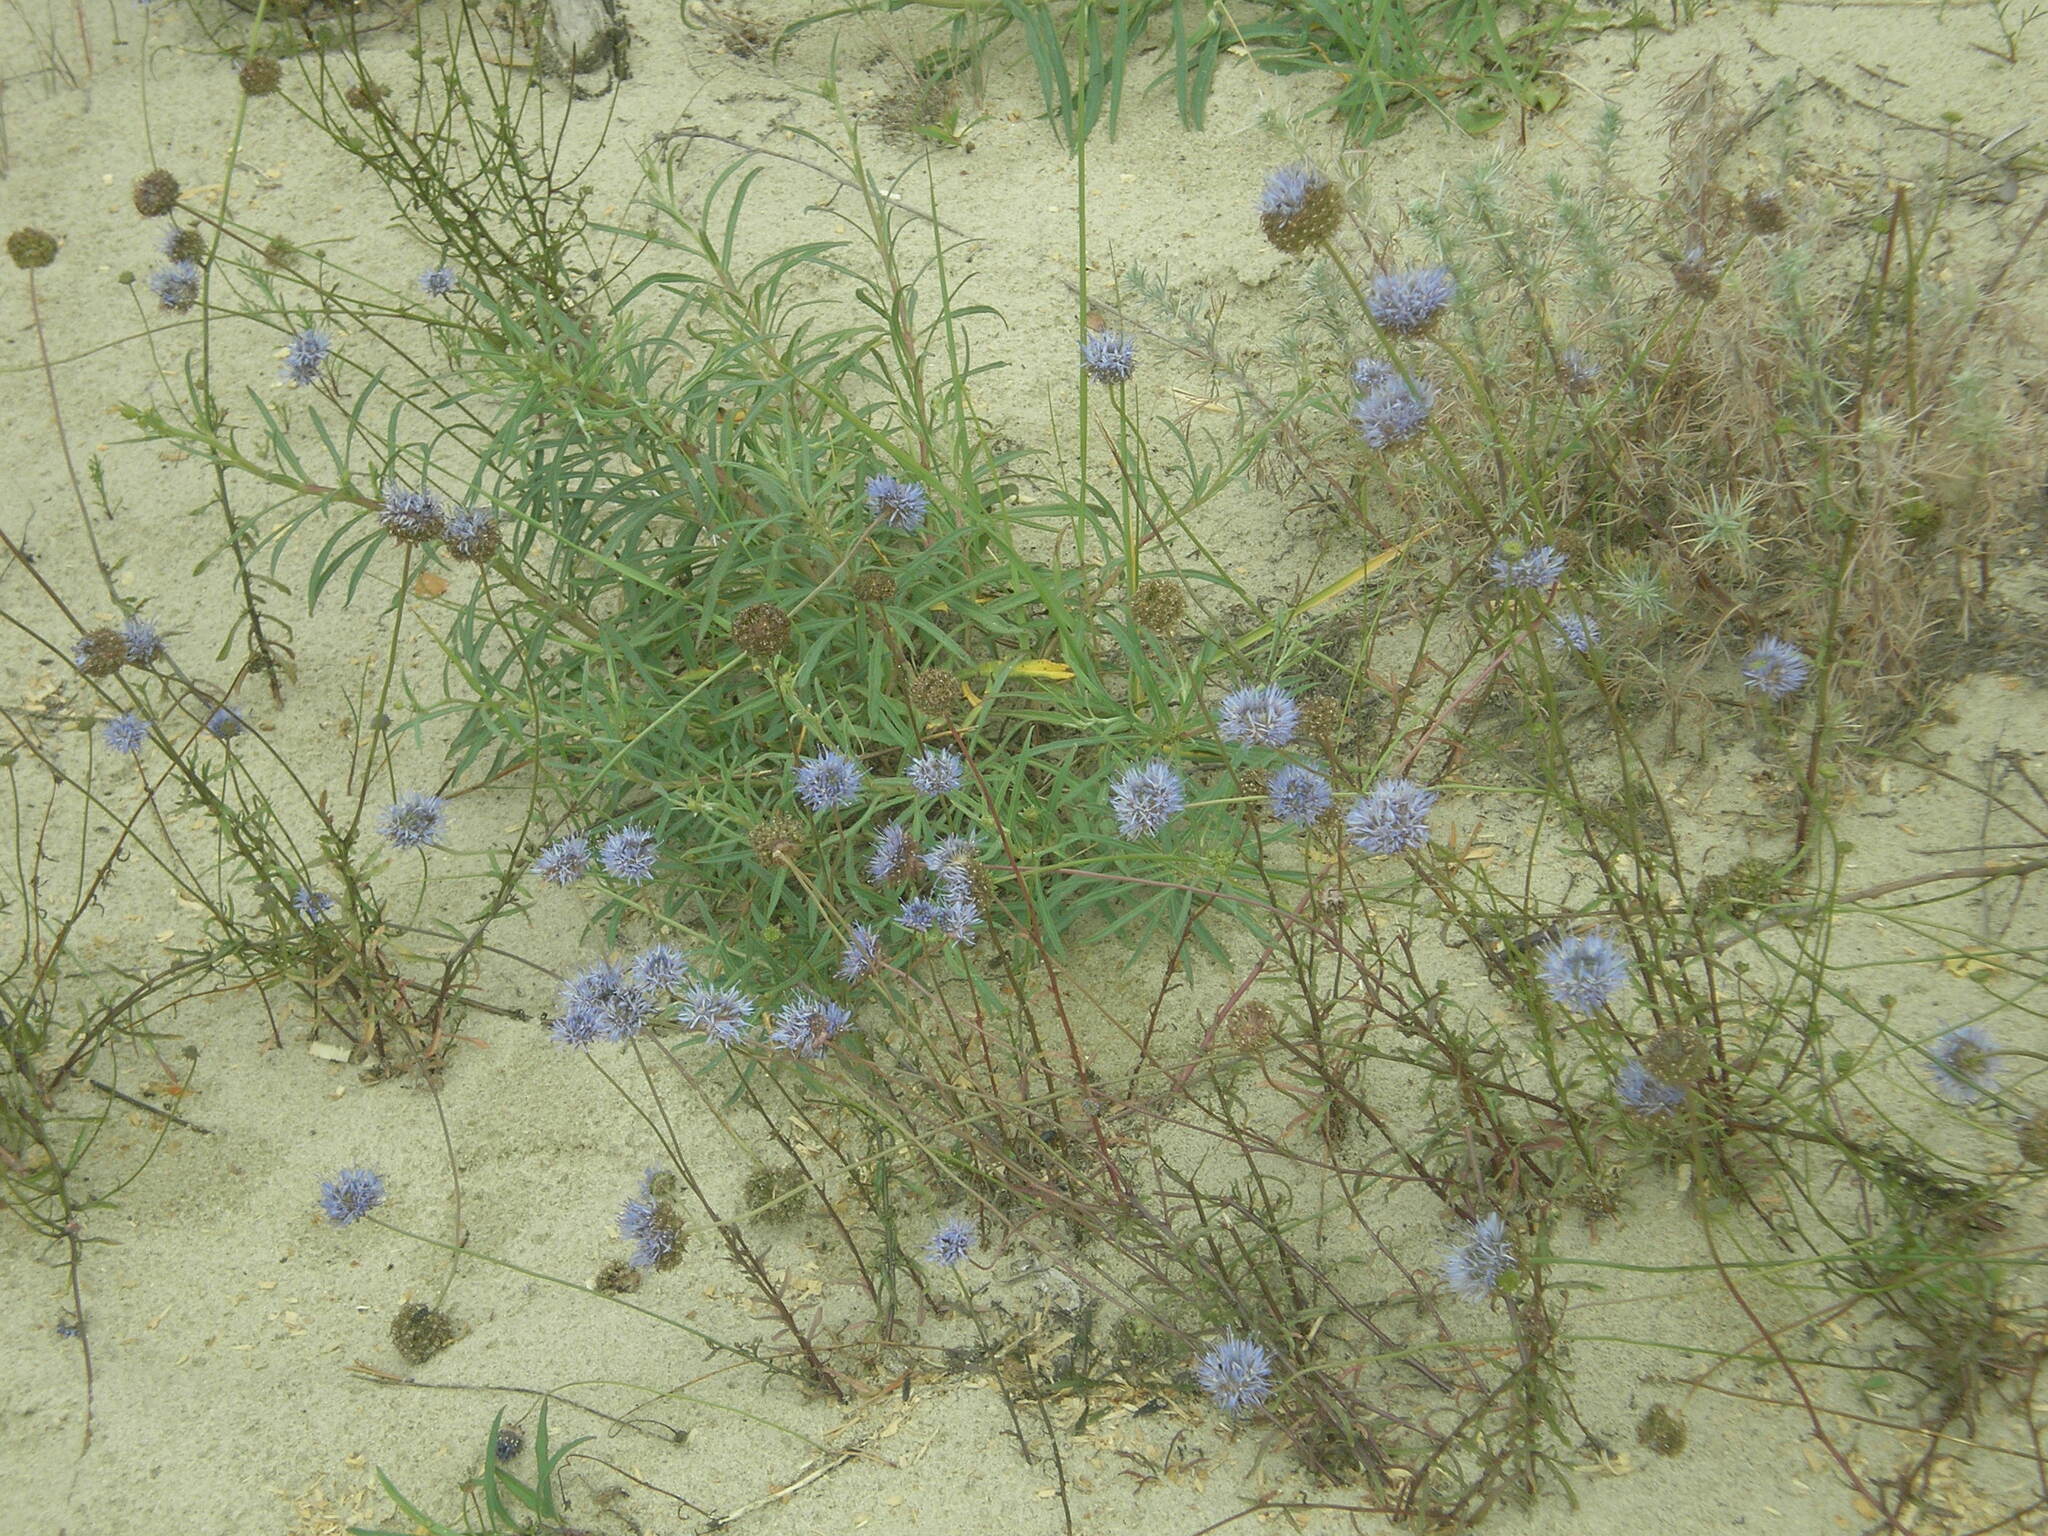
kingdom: Plantae
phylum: Tracheophyta
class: Magnoliopsida
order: Asterales
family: Campanulaceae
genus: Jasione
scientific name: Jasione montana
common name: Sheep's-bit
